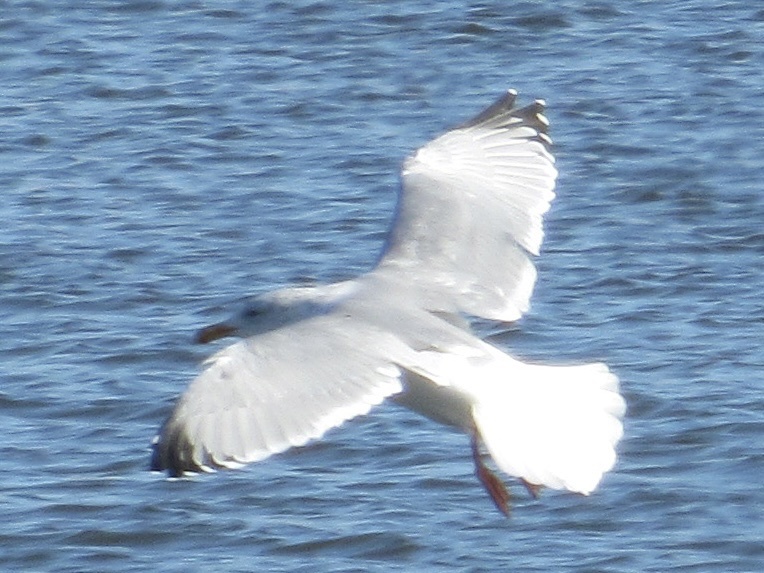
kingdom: Animalia
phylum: Chordata
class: Aves
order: Charadriiformes
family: Laridae
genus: Larus
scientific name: Larus argentatus
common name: Herring gull
